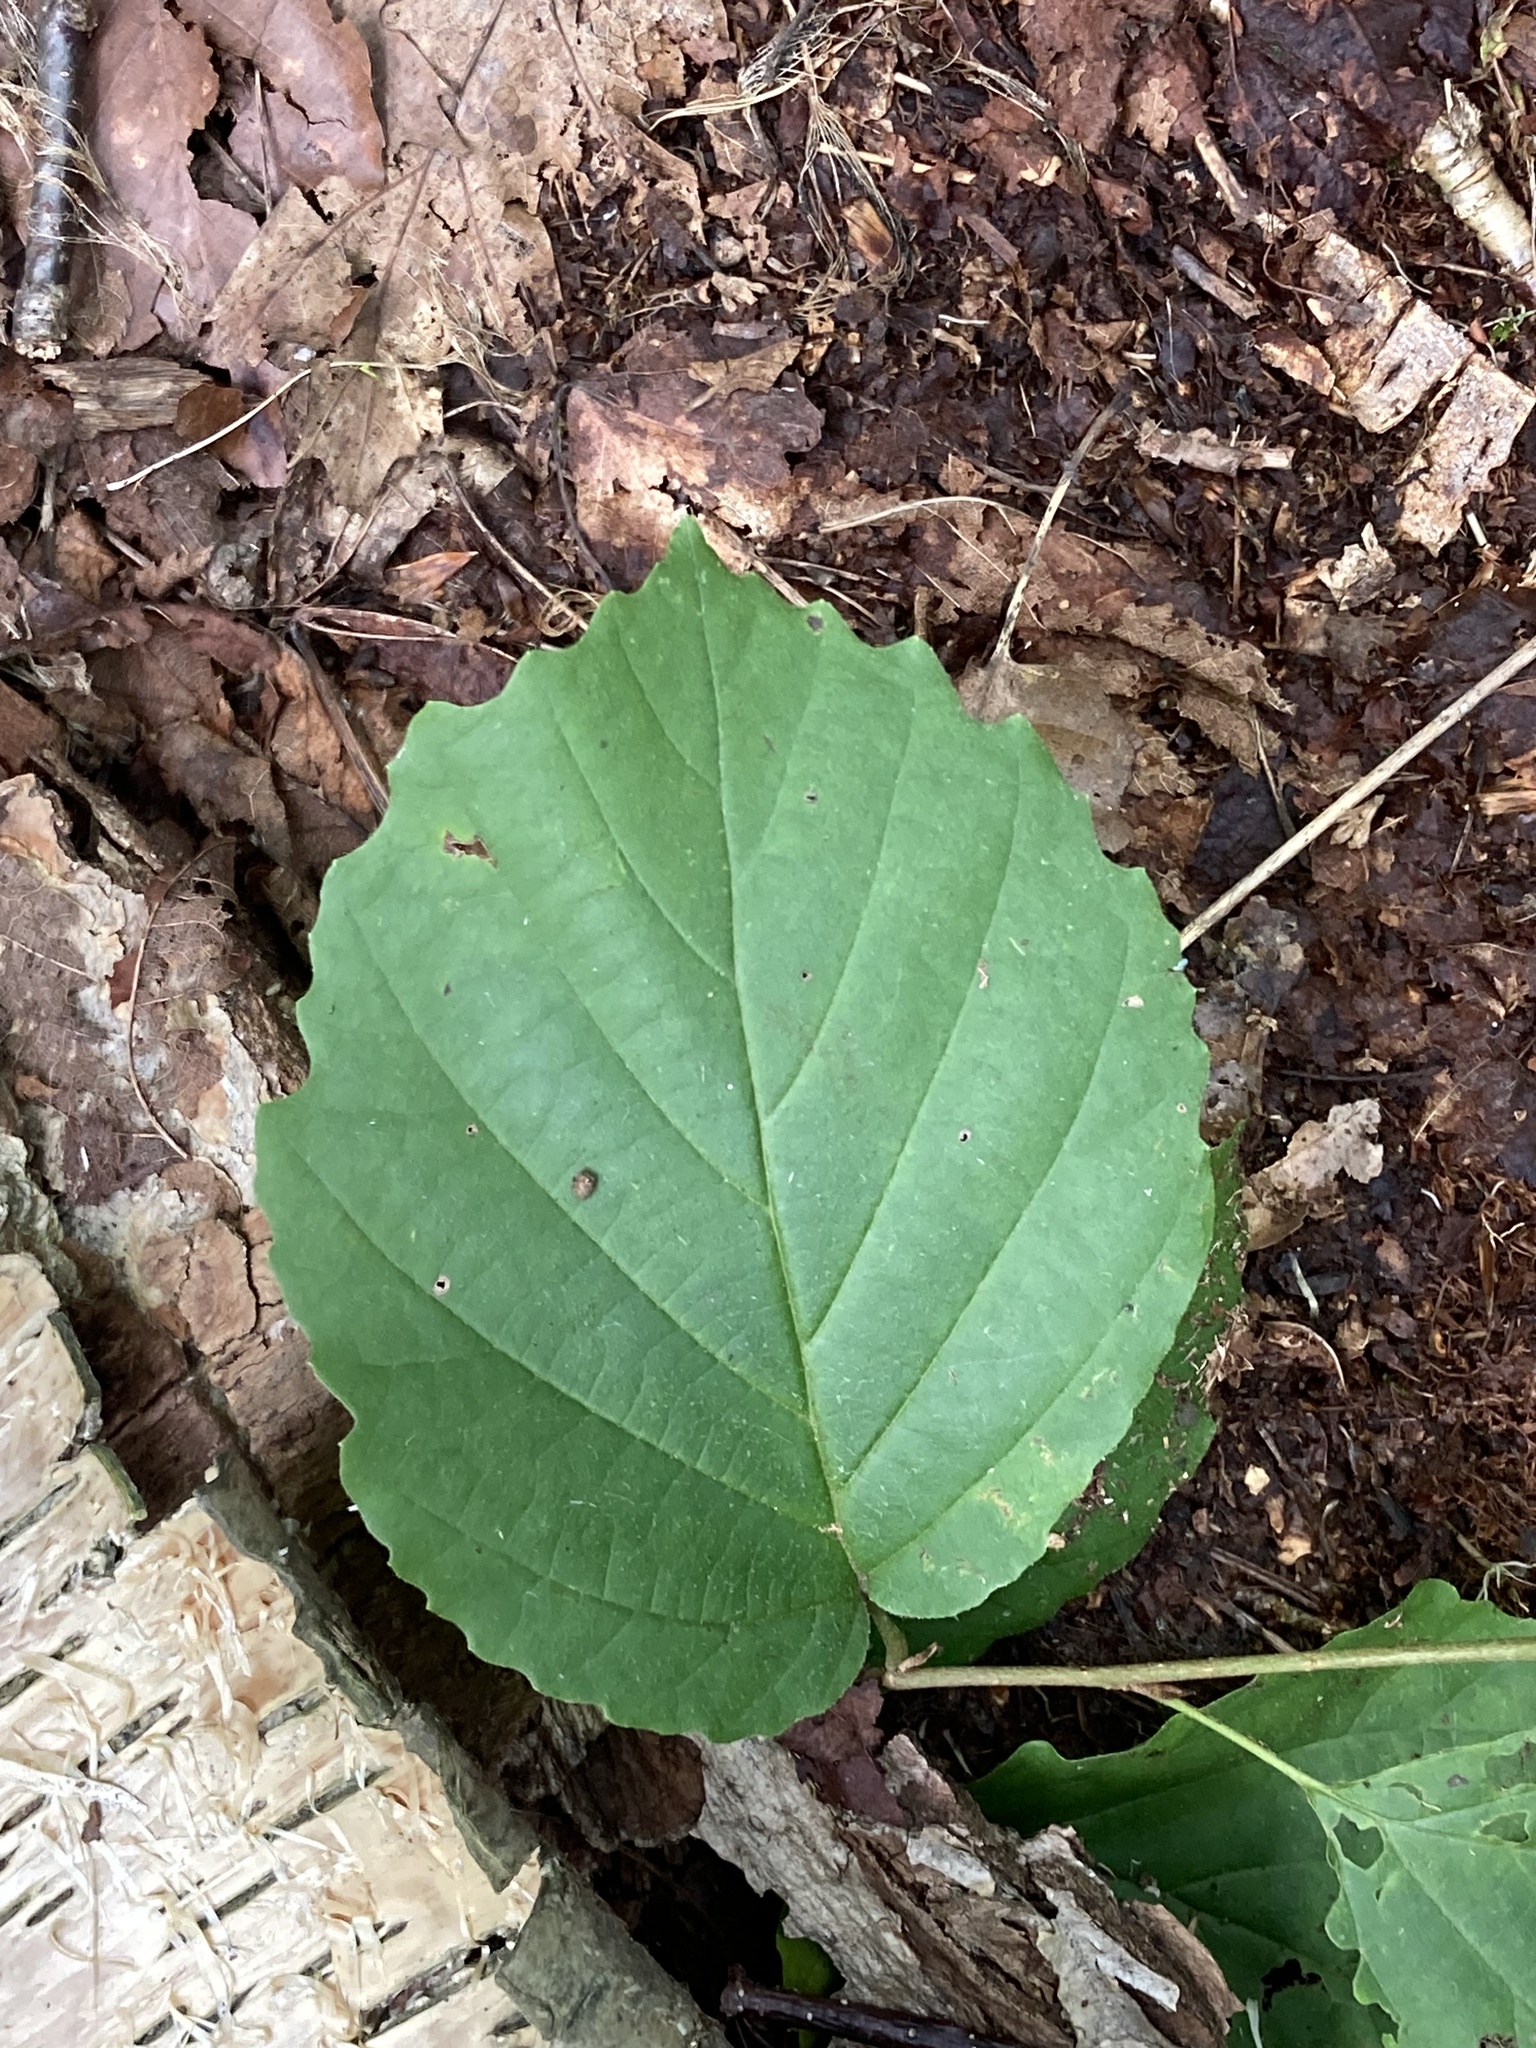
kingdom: Plantae
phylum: Tracheophyta
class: Magnoliopsida
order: Saxifragales
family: Hamamelidaceae
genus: Hamamelis
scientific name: Hamamelis virginiana
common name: Witch-hazel
